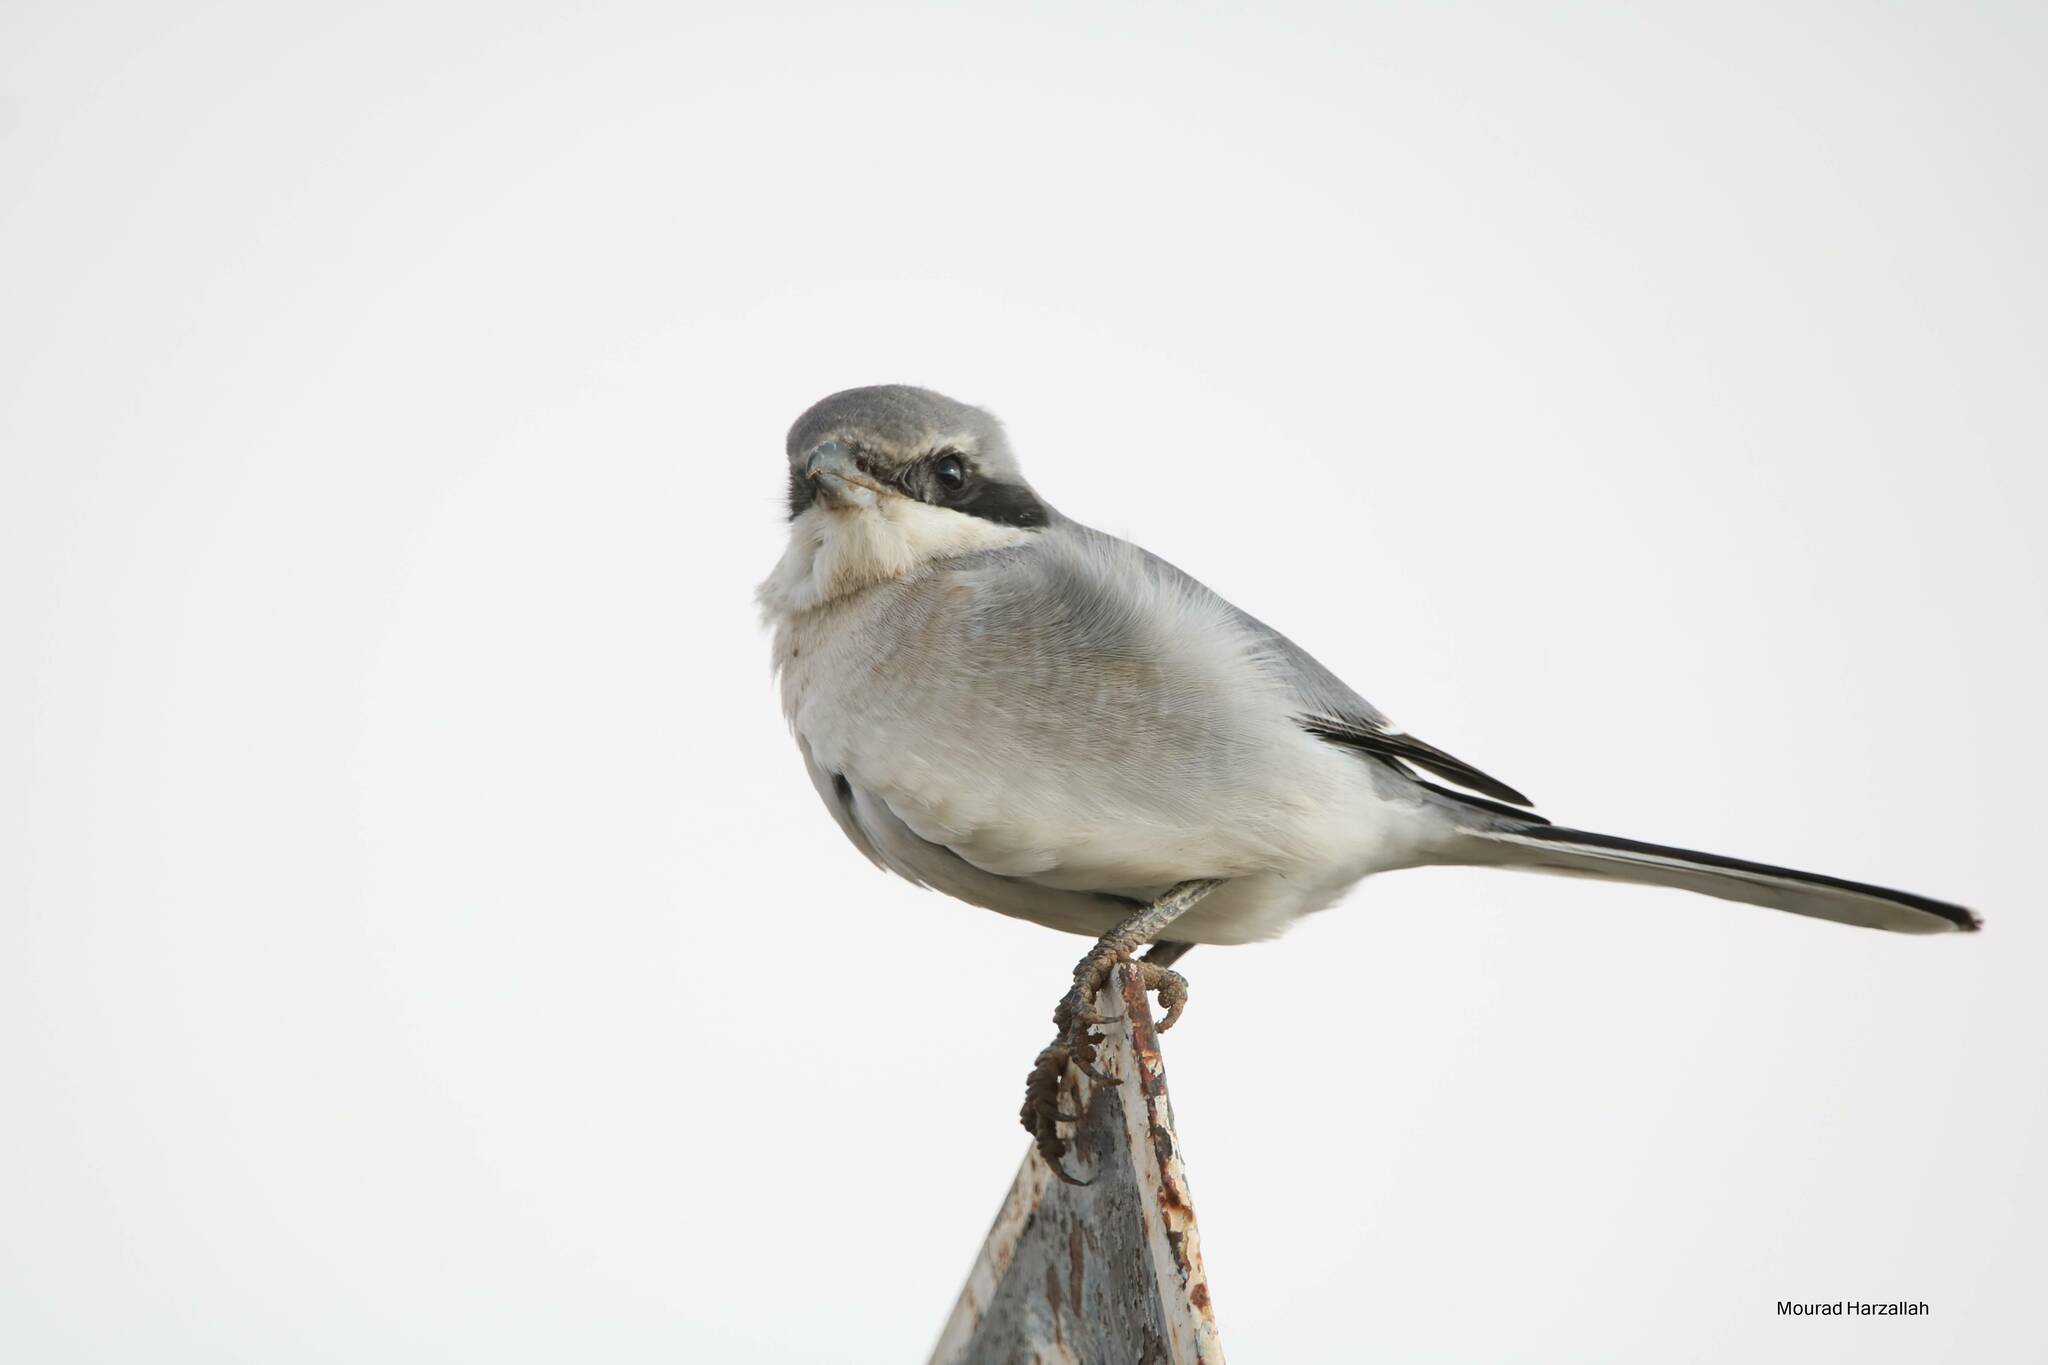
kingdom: Animalia
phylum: Chordata
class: Aves
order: Passeriformes
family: Laniidae
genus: Lanius
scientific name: Lanius excubitor
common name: Great grey shrike
